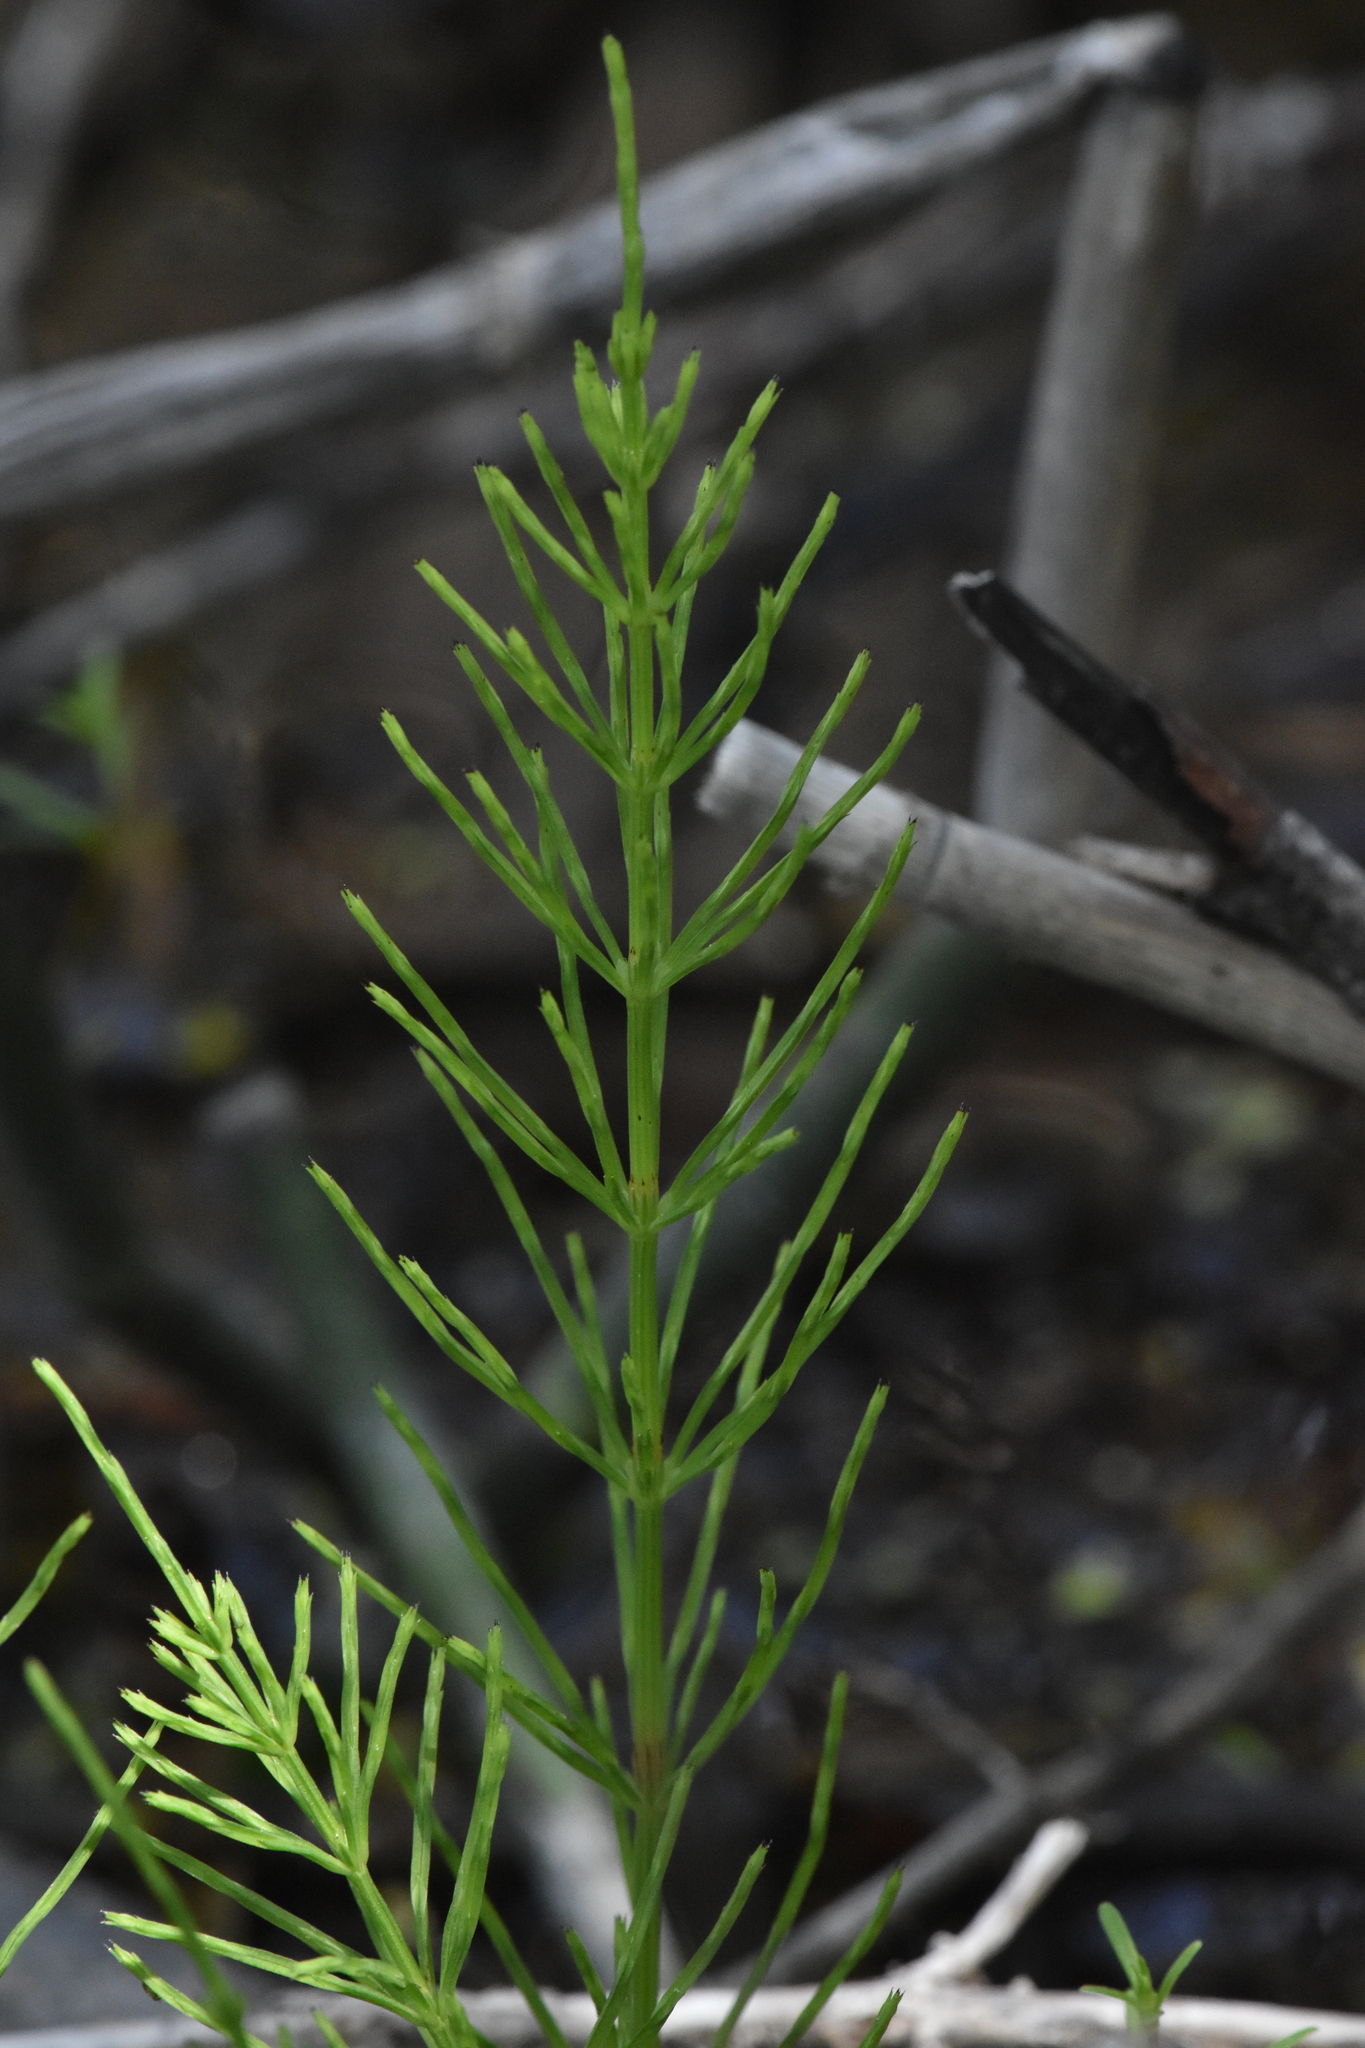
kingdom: Plantae
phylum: Tracheophyta
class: Polypodiopsida
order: Equisetales
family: Equisetaceae
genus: Equisetum
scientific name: Equisetum arvense
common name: Field horsetail
